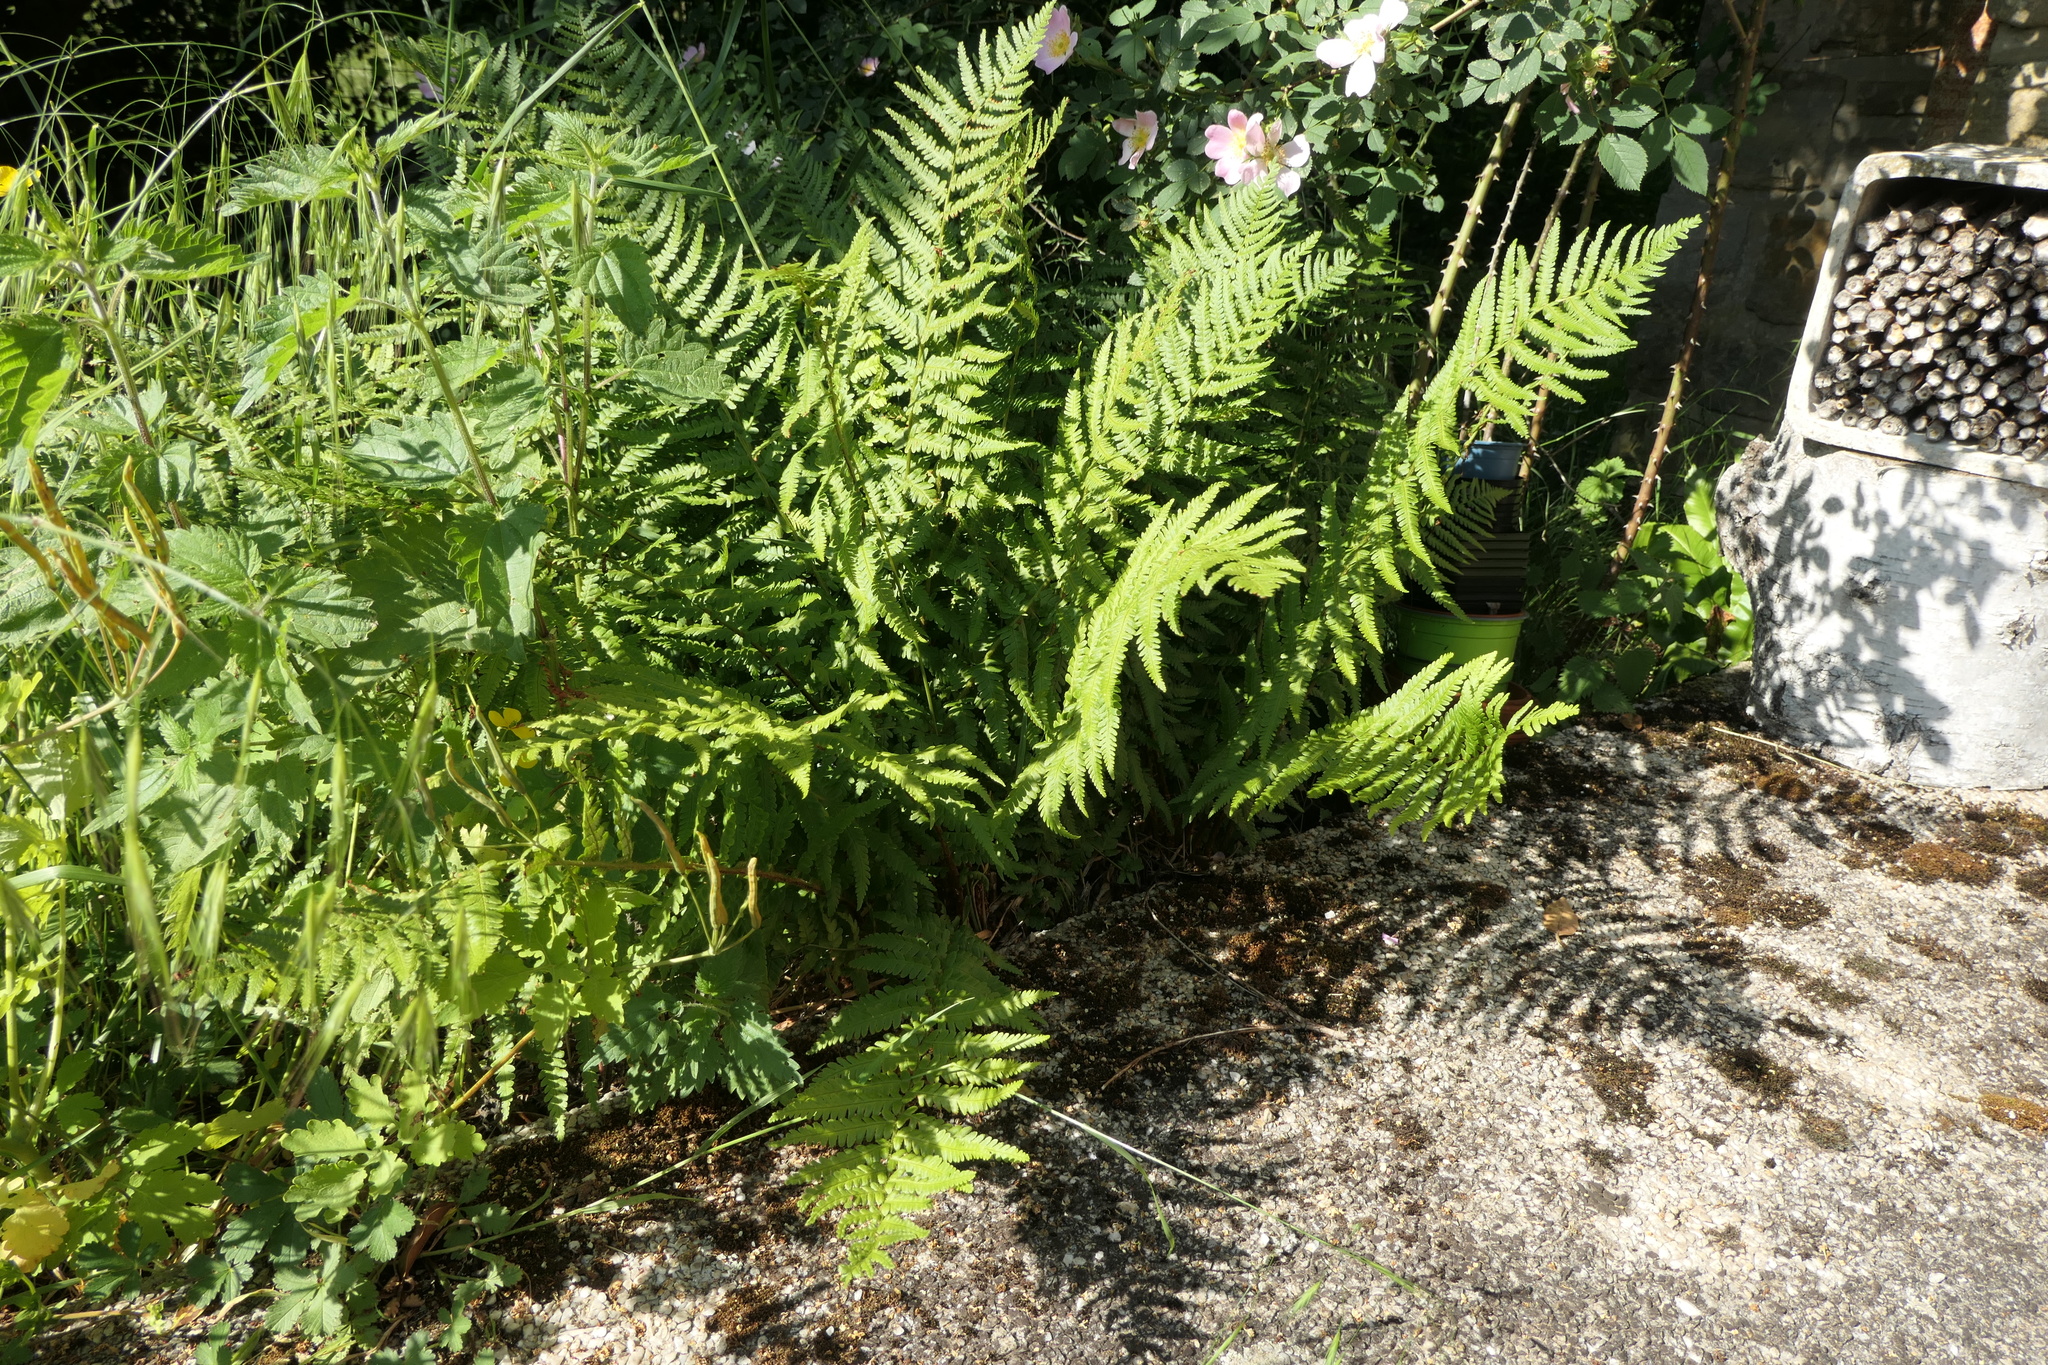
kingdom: Plantae
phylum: Tracheophyta
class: Polypodiopsida
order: Polypodiales
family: Dryopteridaceae
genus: Dryopteris
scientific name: Dryopteris filix-mas
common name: Male fern
